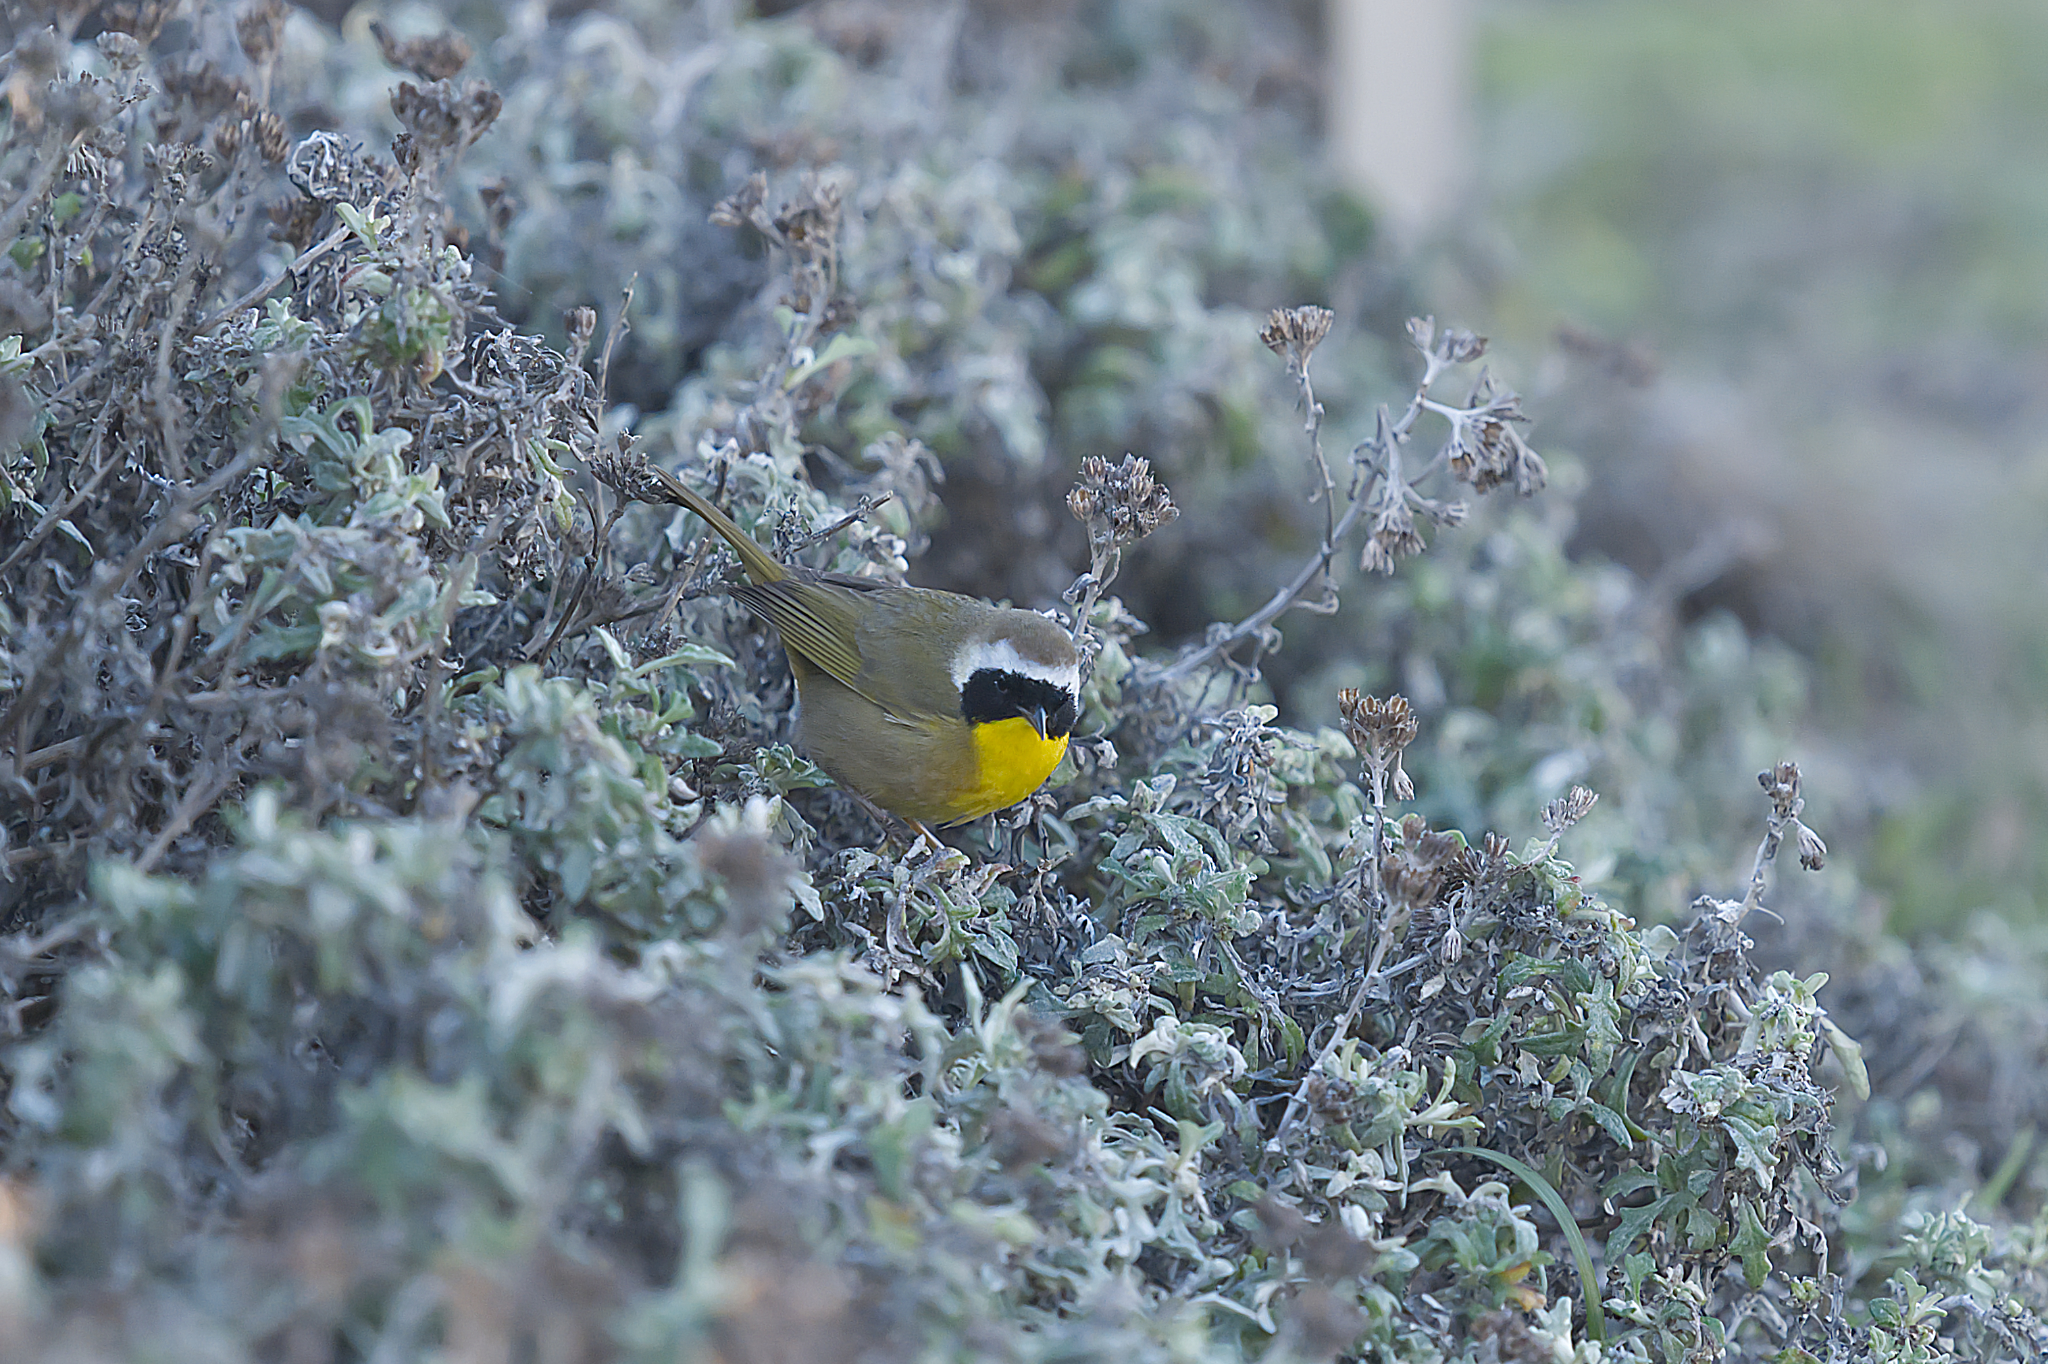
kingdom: Animalia
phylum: Chordata
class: Aves
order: Passeriformes
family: Parulidae
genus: Geothlypis
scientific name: Geothlypis trichas
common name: Common yellowthroat
